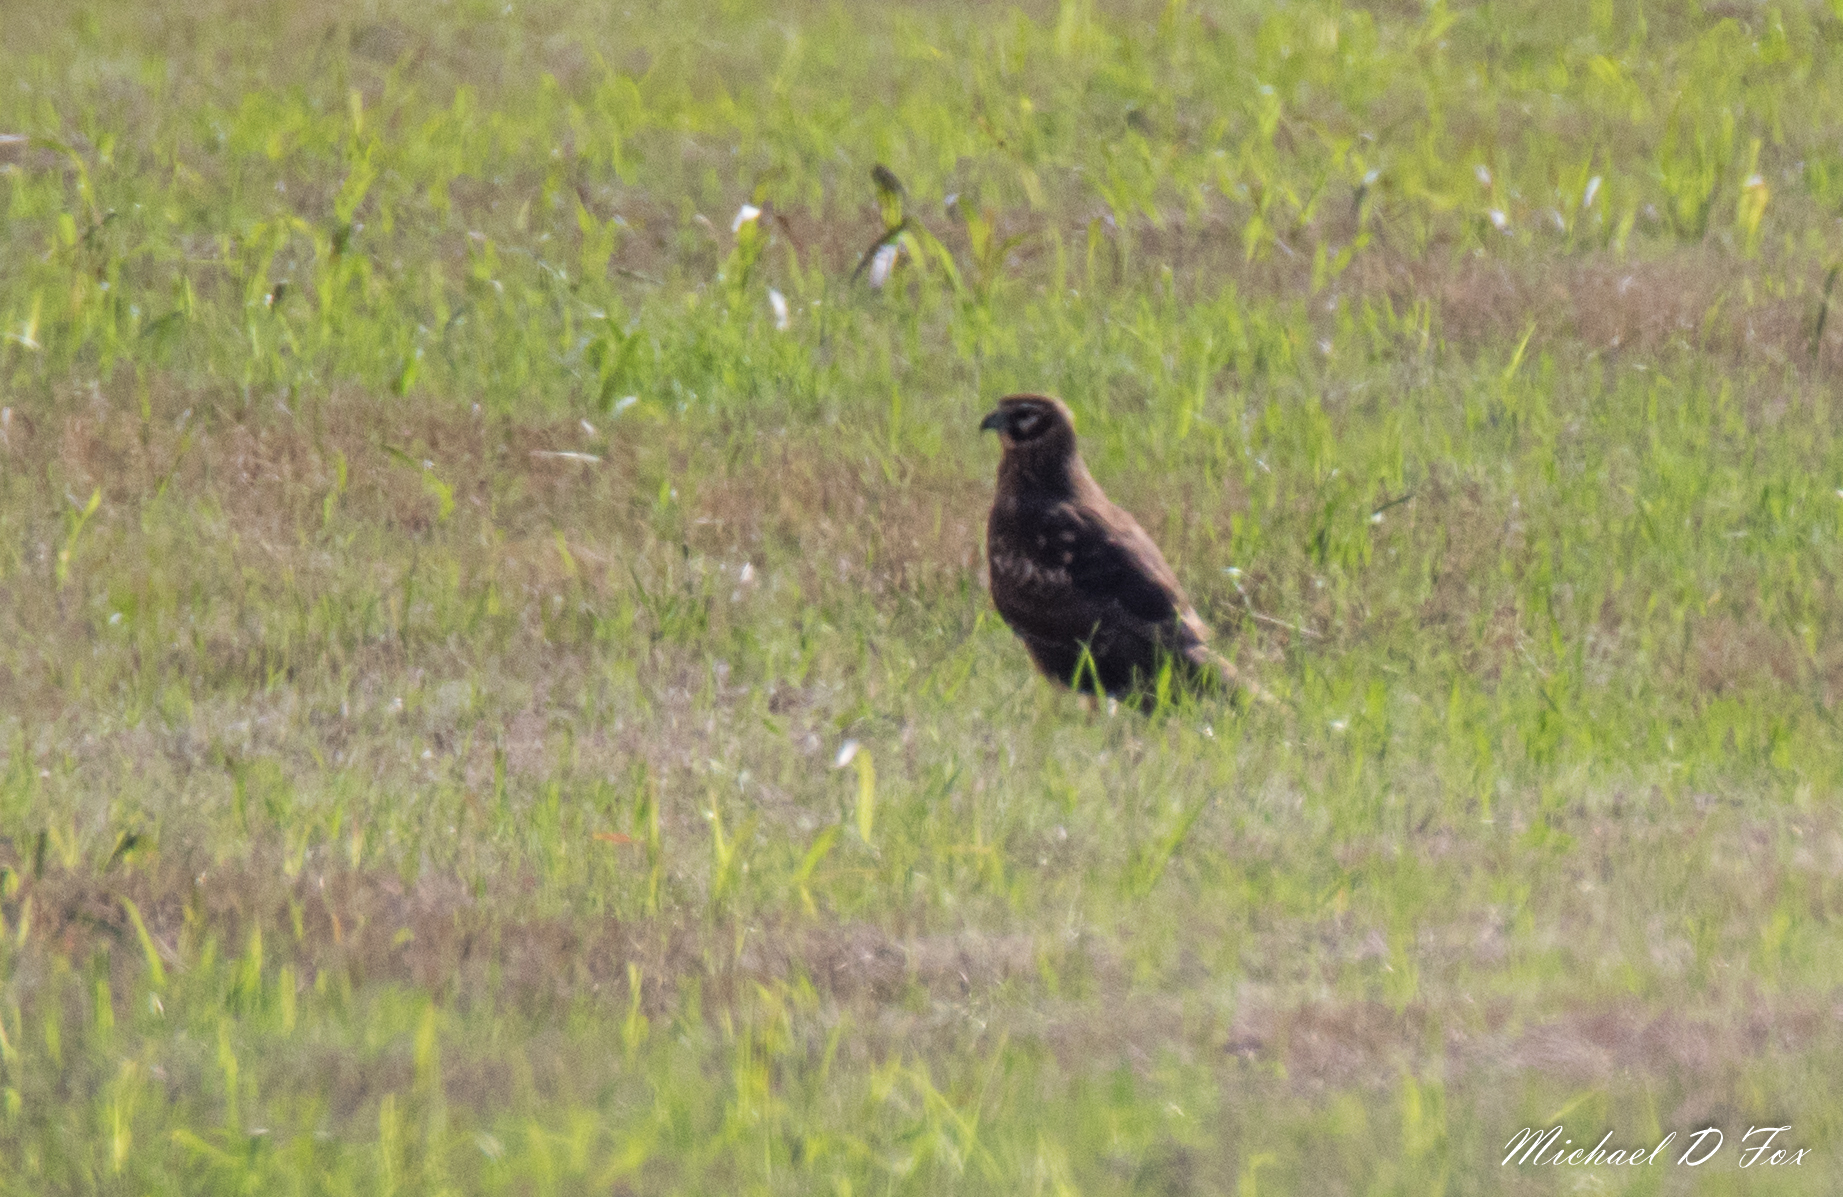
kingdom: Animalia
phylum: Chordata
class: Aves
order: Accipitriformes
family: Accipitridae
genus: Circus
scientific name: Circus cyaneus
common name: Hen harrier
